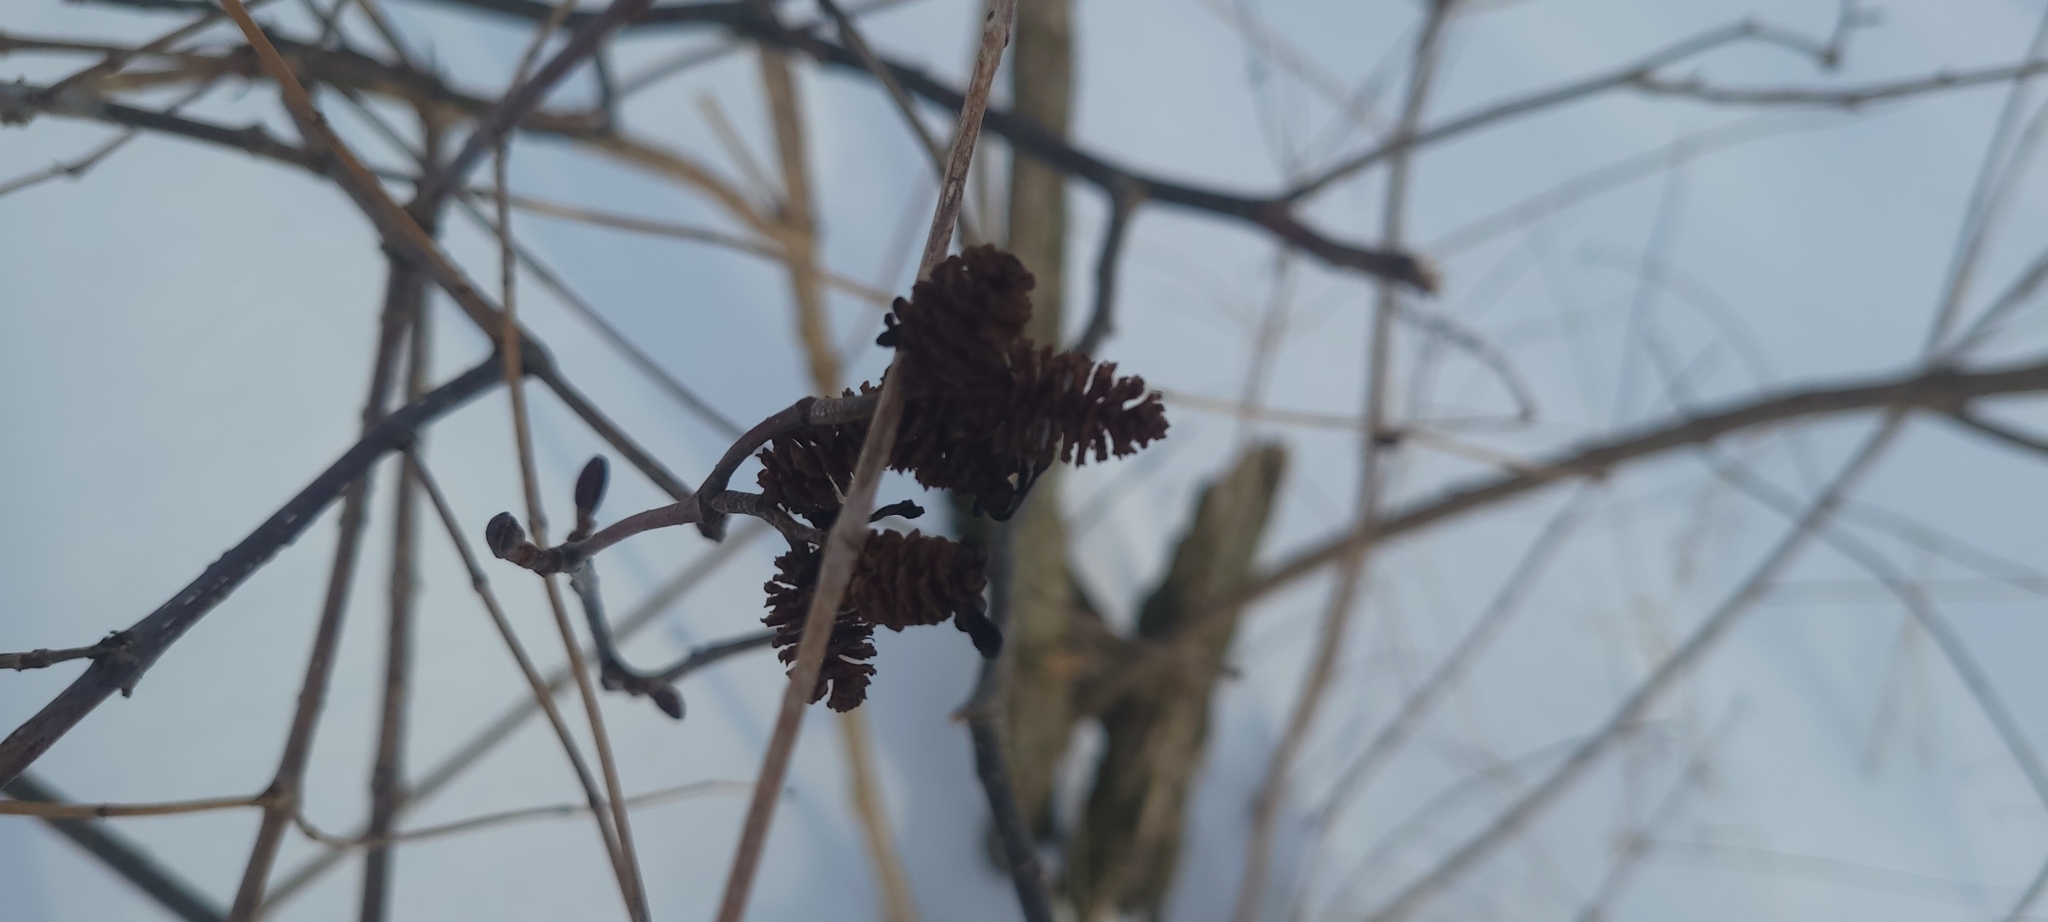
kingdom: Plantae
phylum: Tracheophyta
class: Magnoliopsida
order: Fagales
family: Betulaceae
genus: Alnus
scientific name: Alnus incana
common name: Grey alder
